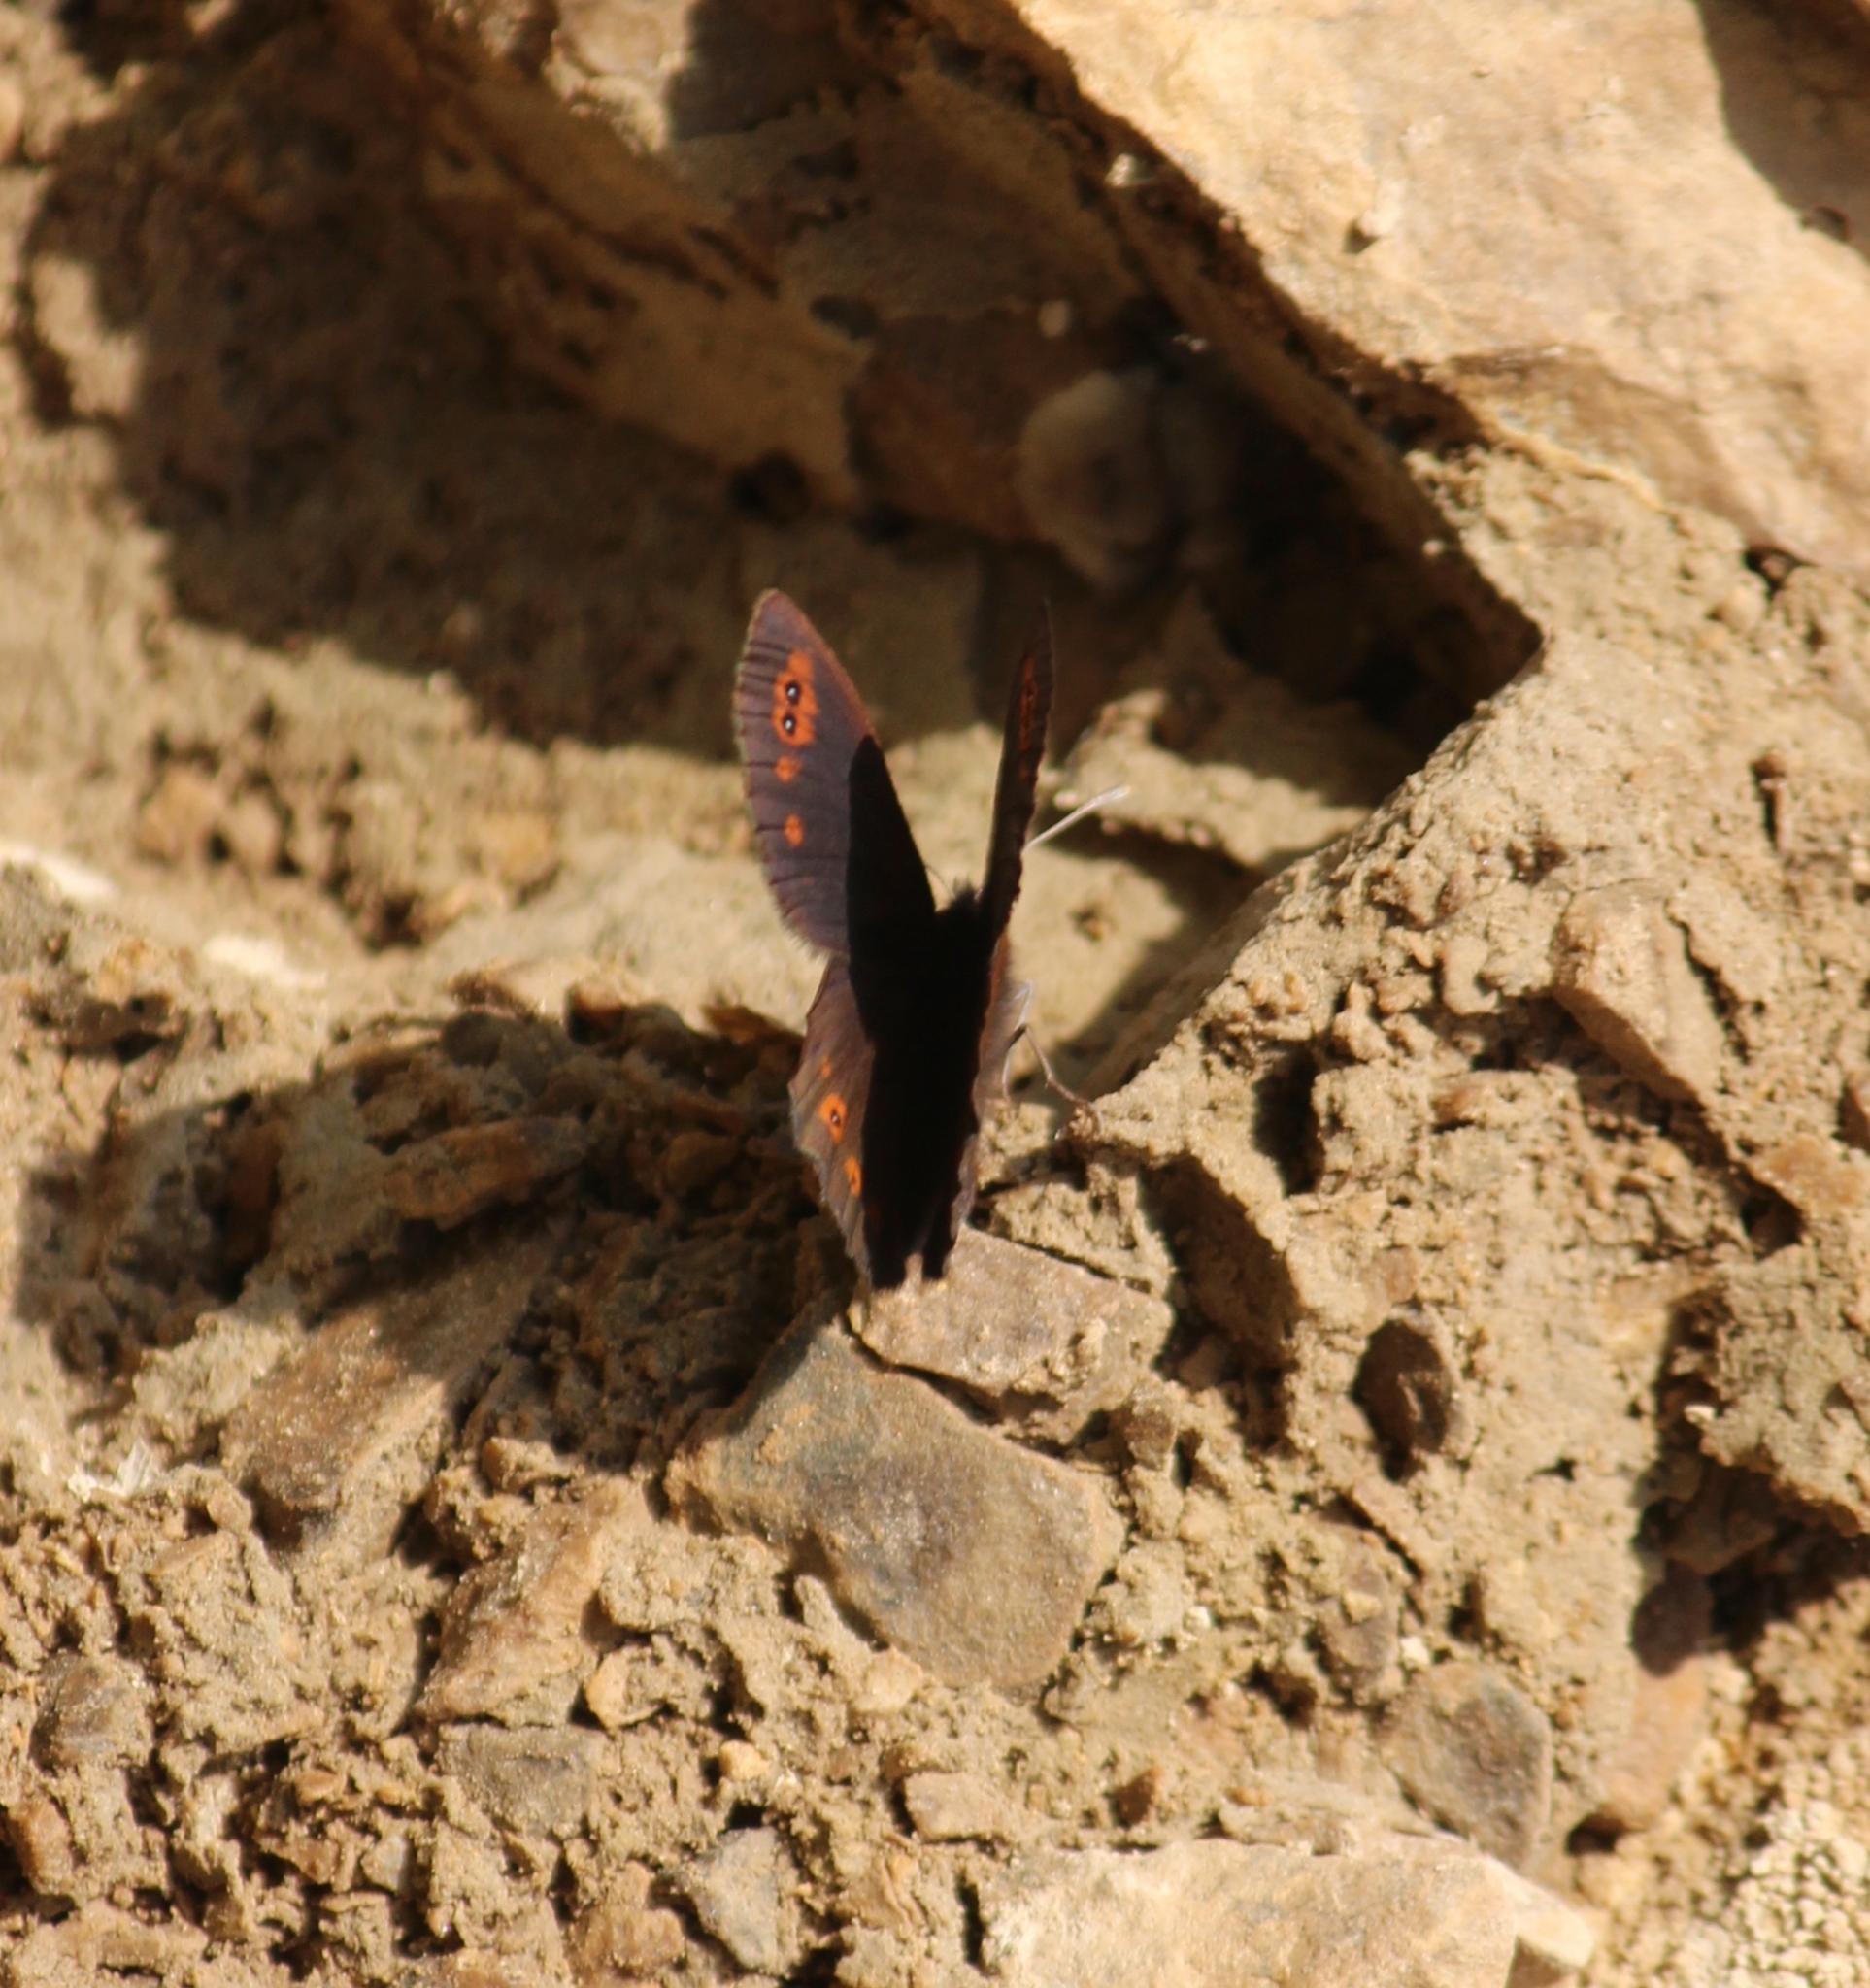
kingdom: Animalia
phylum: Arthropoda
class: Insecta
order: Lepidoptera
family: Nymphalidae
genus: Erebia
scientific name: Erebia medusa
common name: Woodland ringlet
